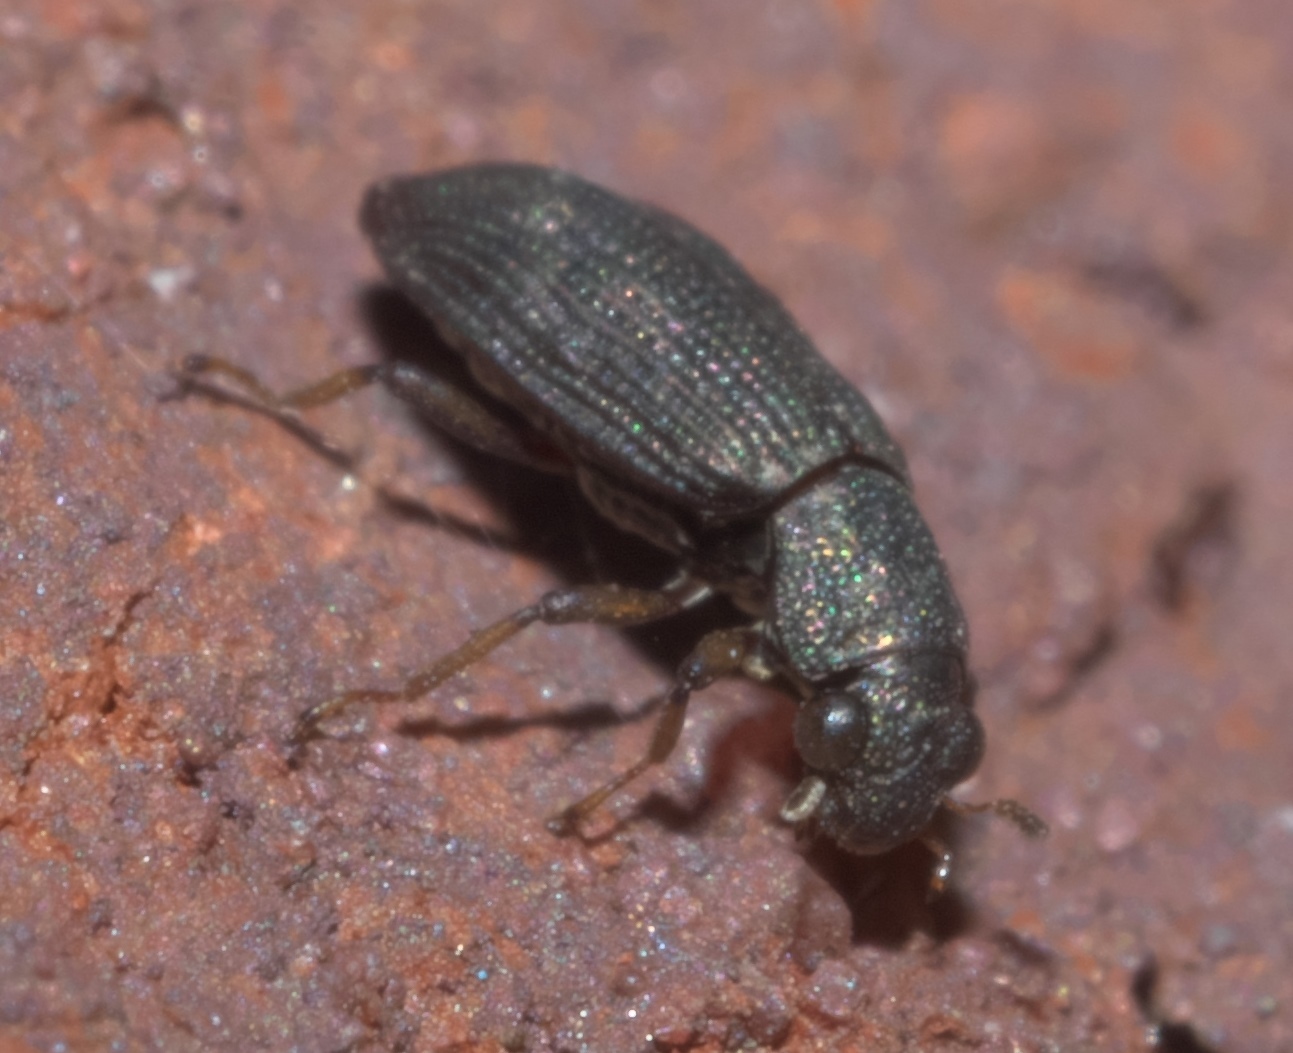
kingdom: Animalia
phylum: Arthropoda
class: Insecta
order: Coleoptera
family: Hydrochidae
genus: Hydrochus
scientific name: Hydrochus
